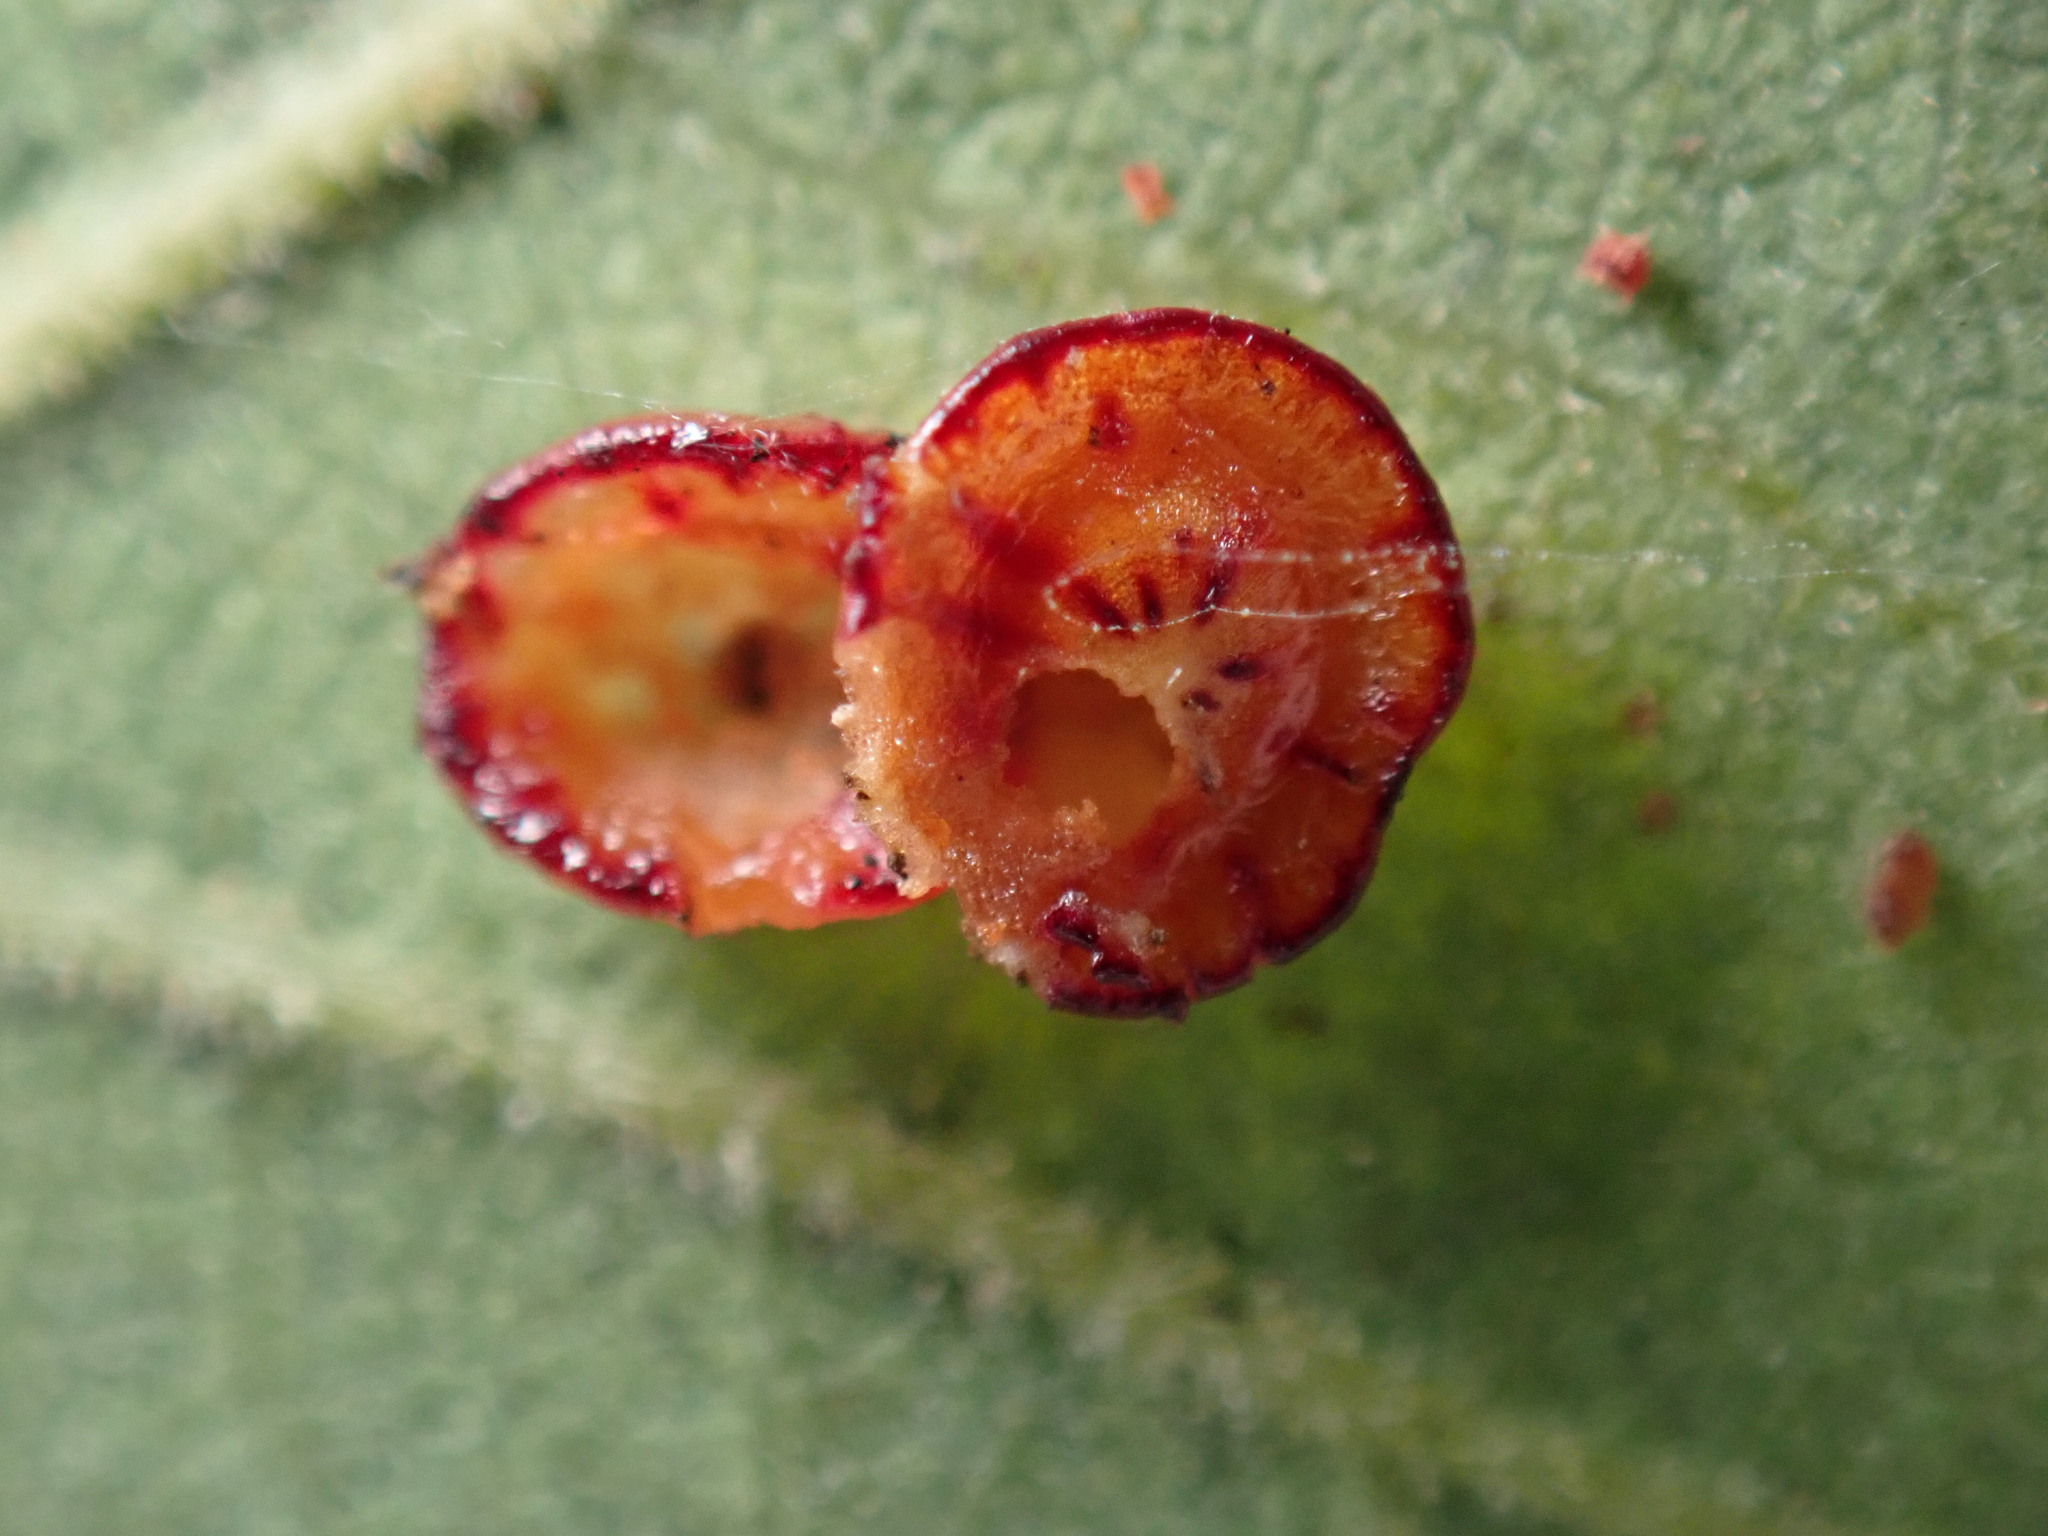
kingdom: Animalia
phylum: Arthropoda
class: Insecta
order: Hymenoptera
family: Cynipidae
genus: Andricus
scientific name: Andricus
